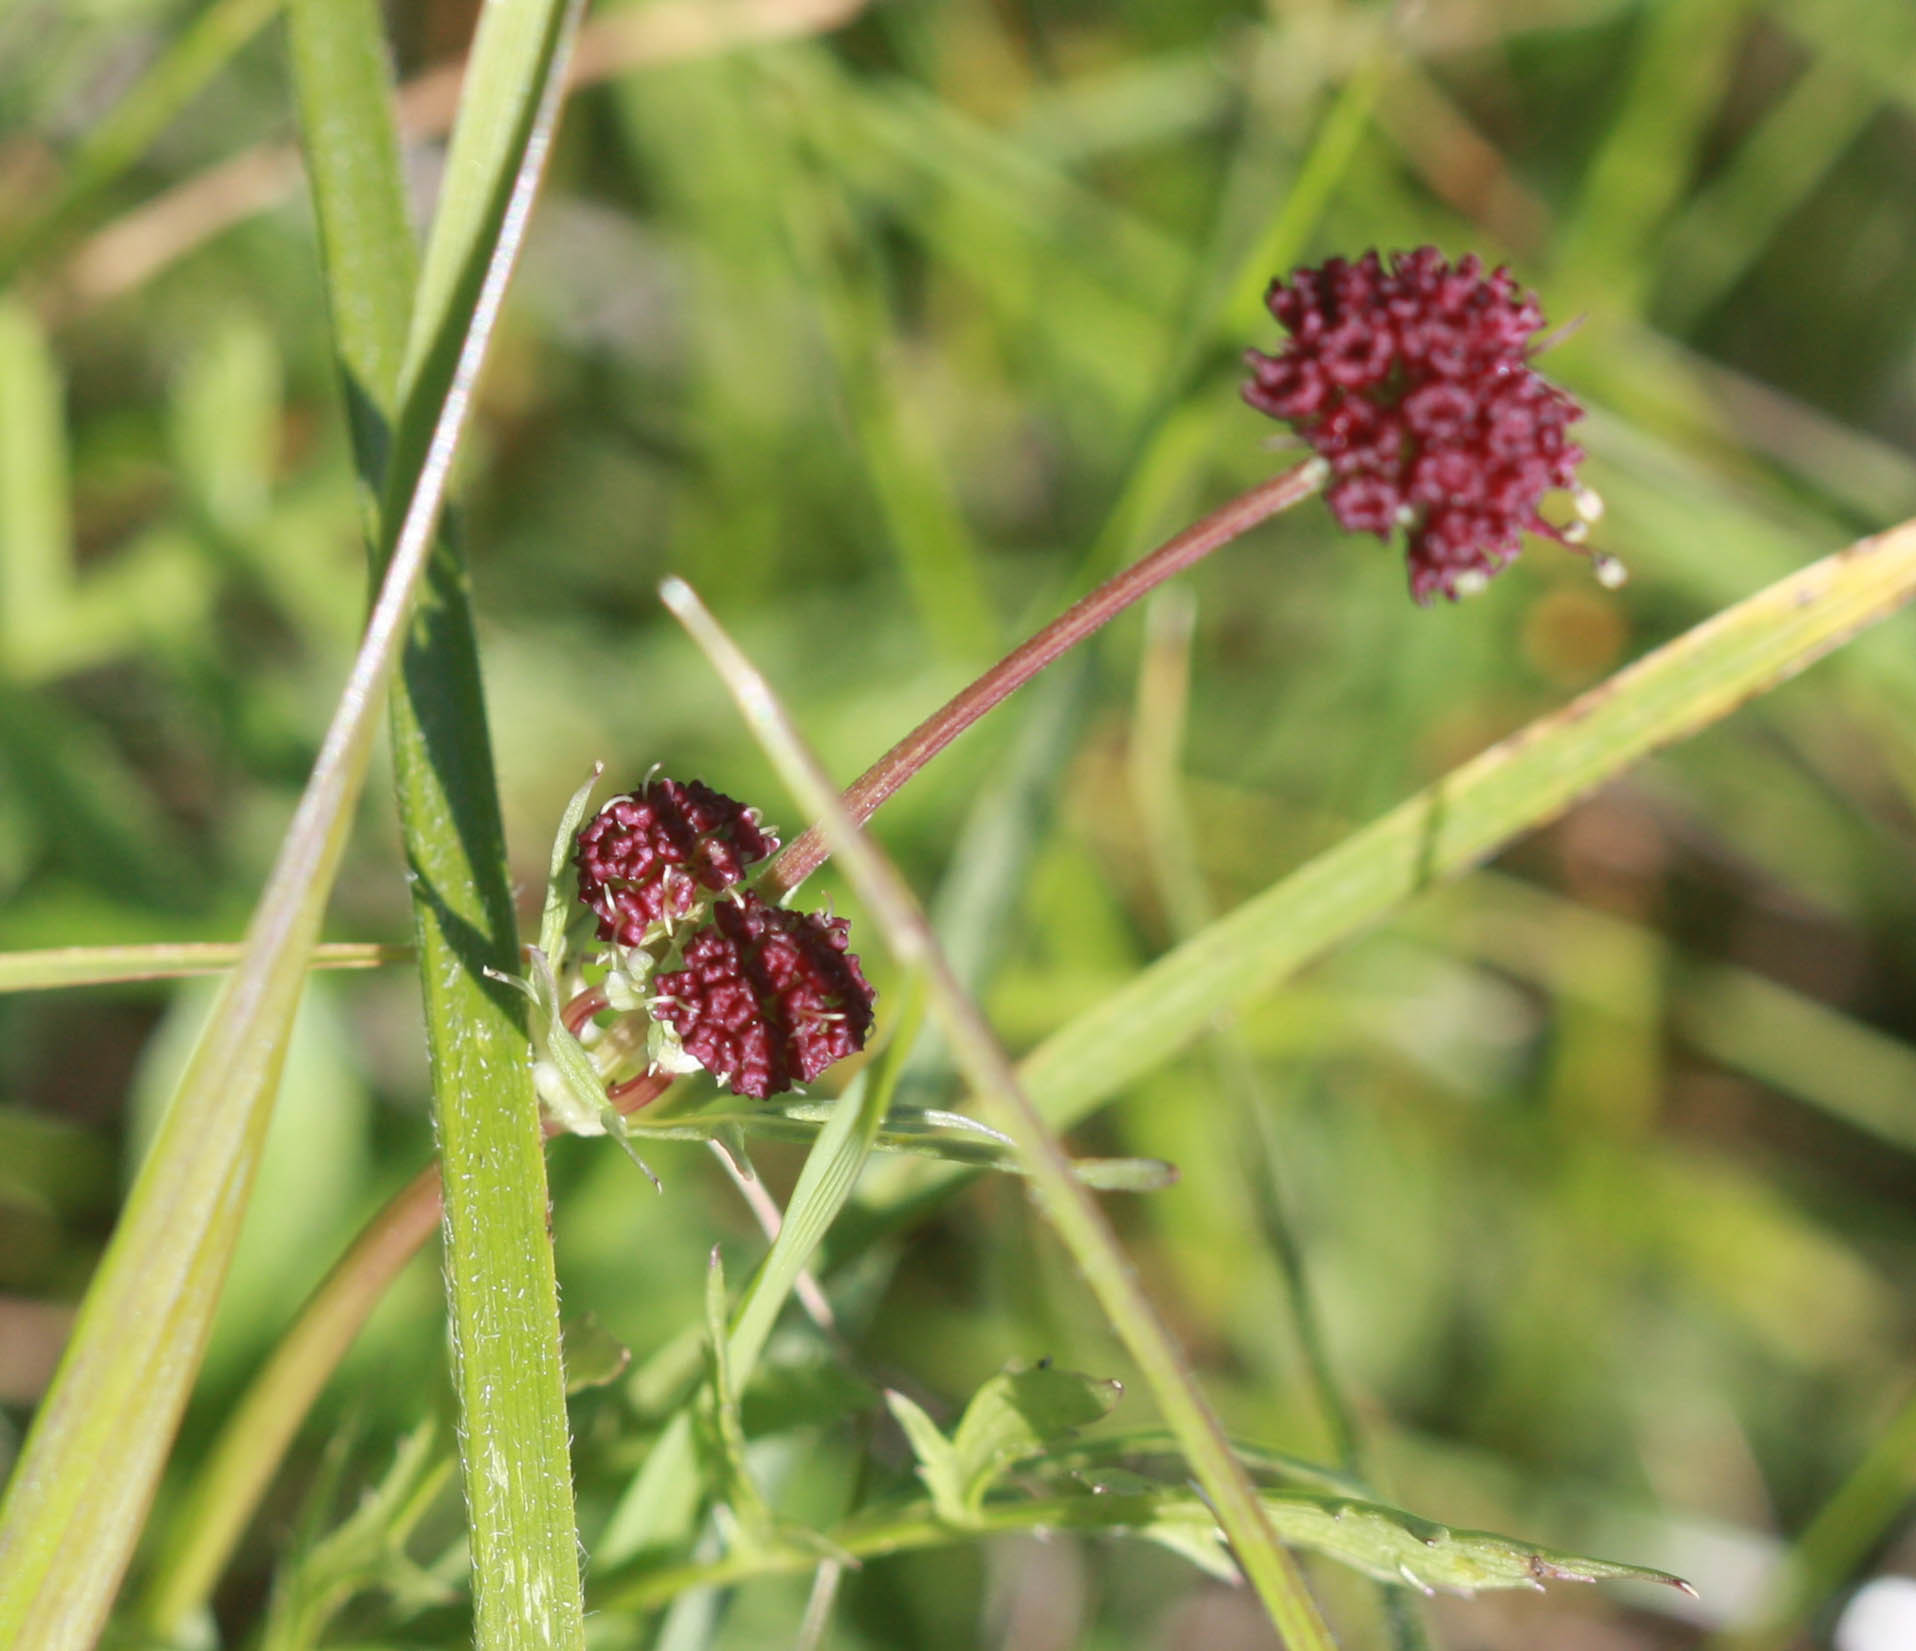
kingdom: Plantae
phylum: Tracheophyta
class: Magnoliopsida
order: Apiales
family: Apiaceae
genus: Sanicula
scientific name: Sanicula bipinnatifida
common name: Shoe-buttons
